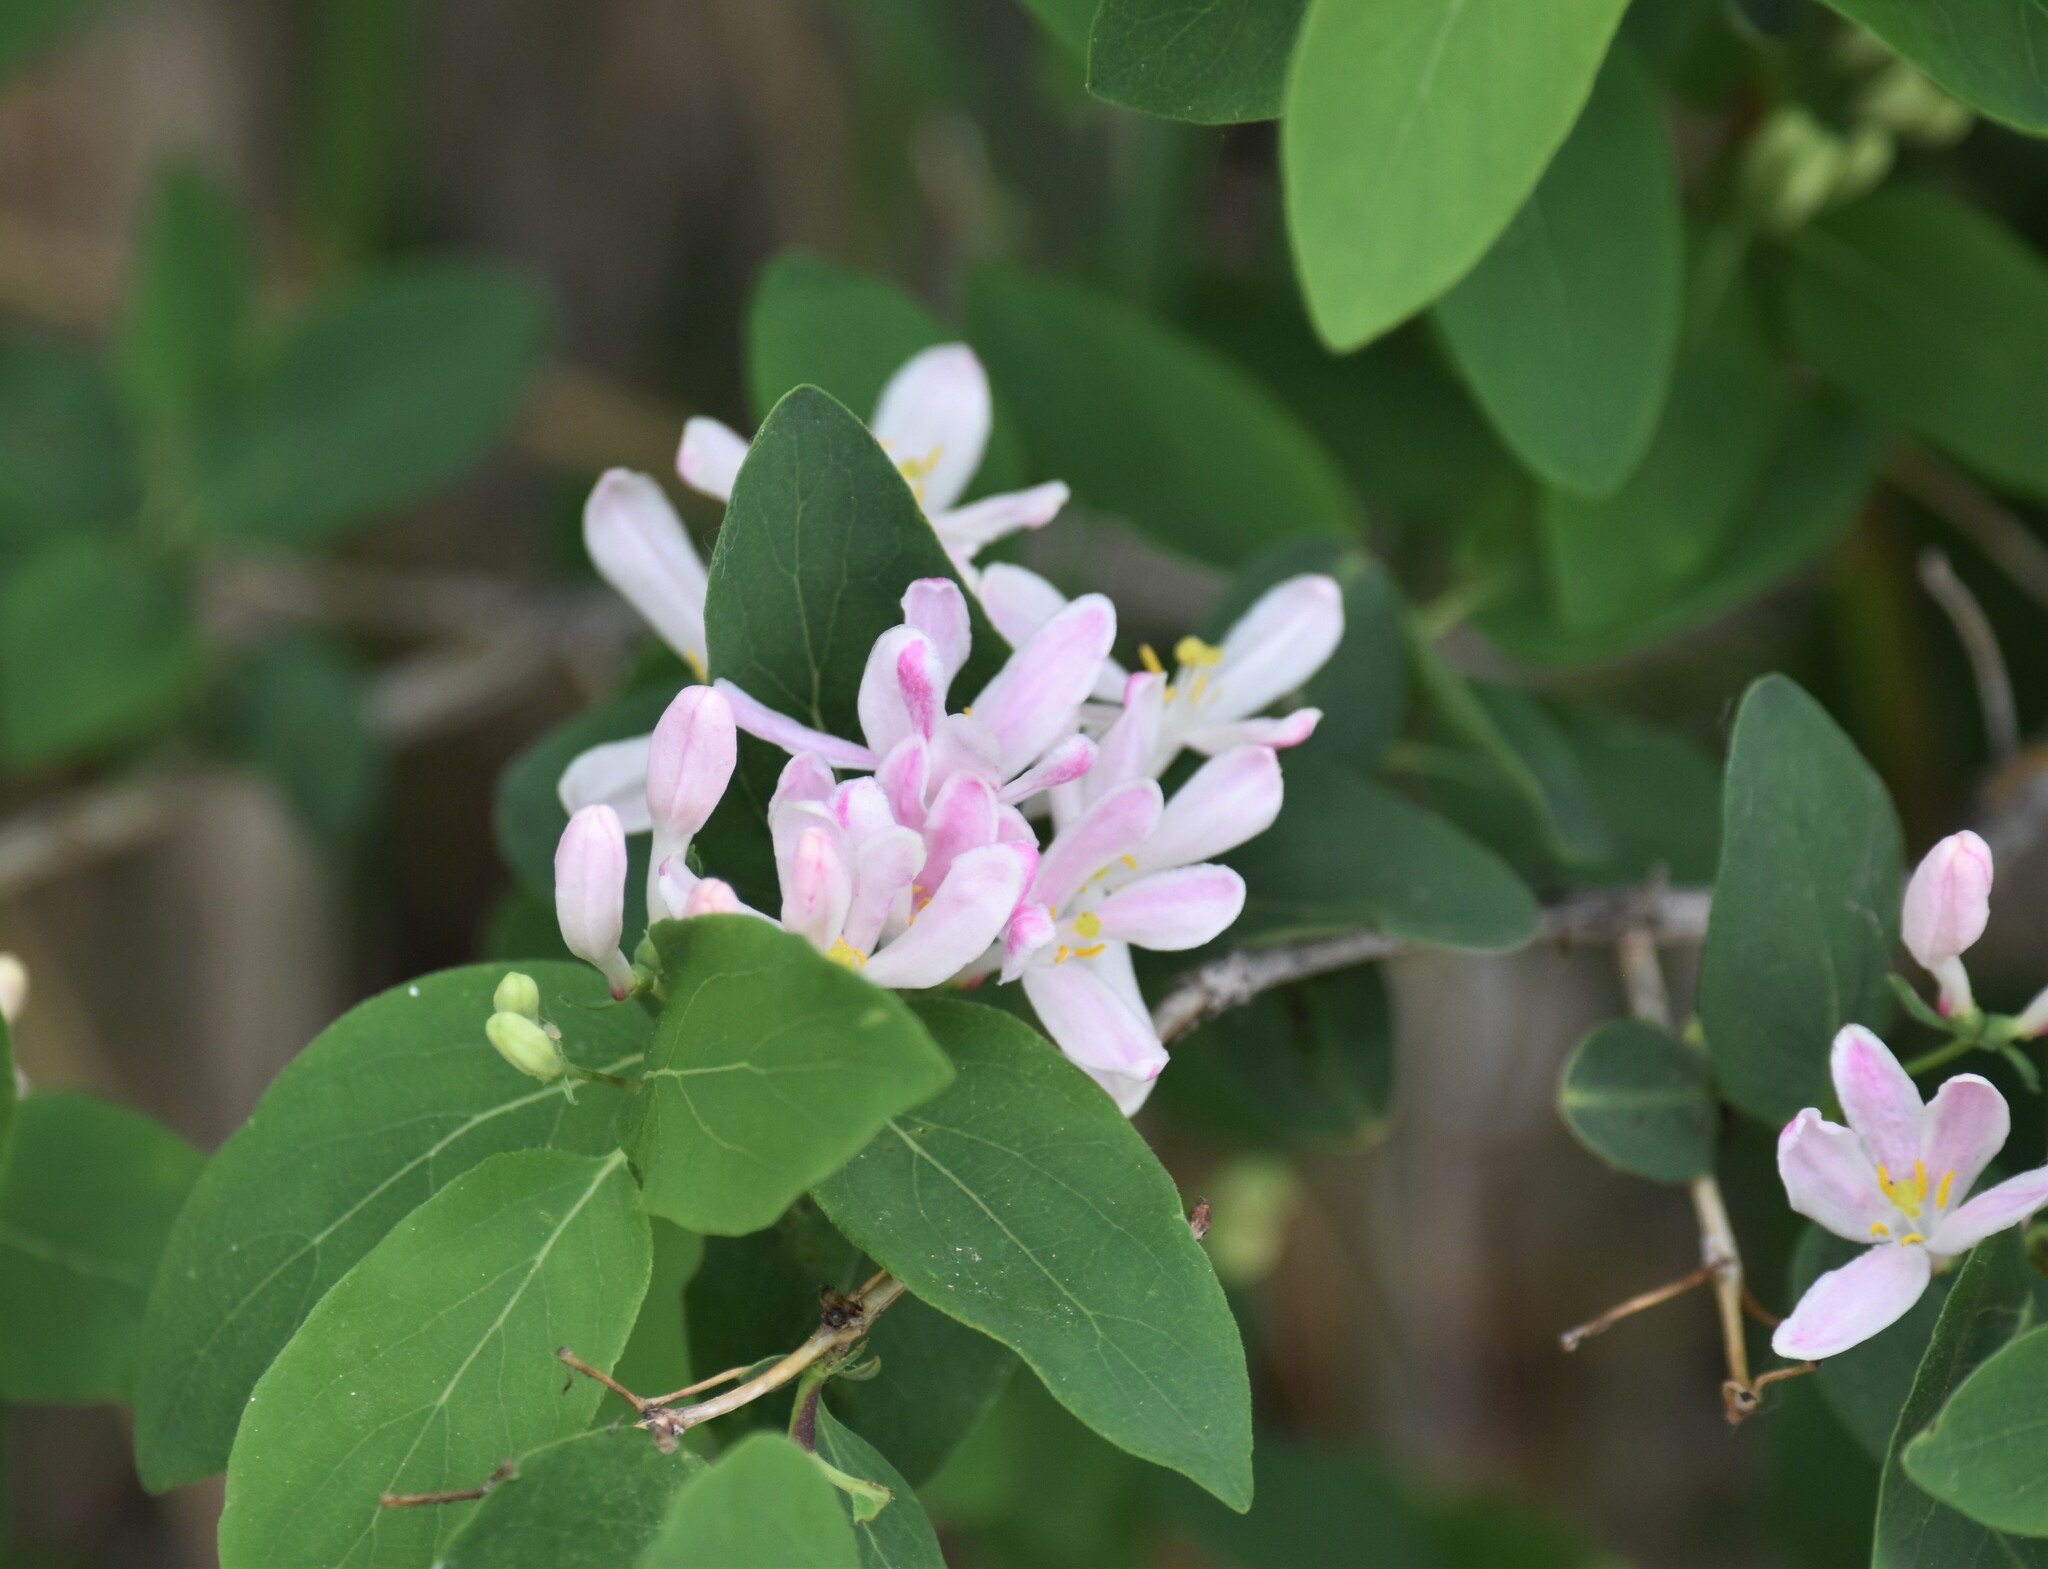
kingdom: Plantae
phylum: Tracheophyta
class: Magnoliopsida
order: Dipsacales
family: Caprifoliaceae
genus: Lonicera
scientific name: Lonicera tatarica
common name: Tatarian honeysuckle
